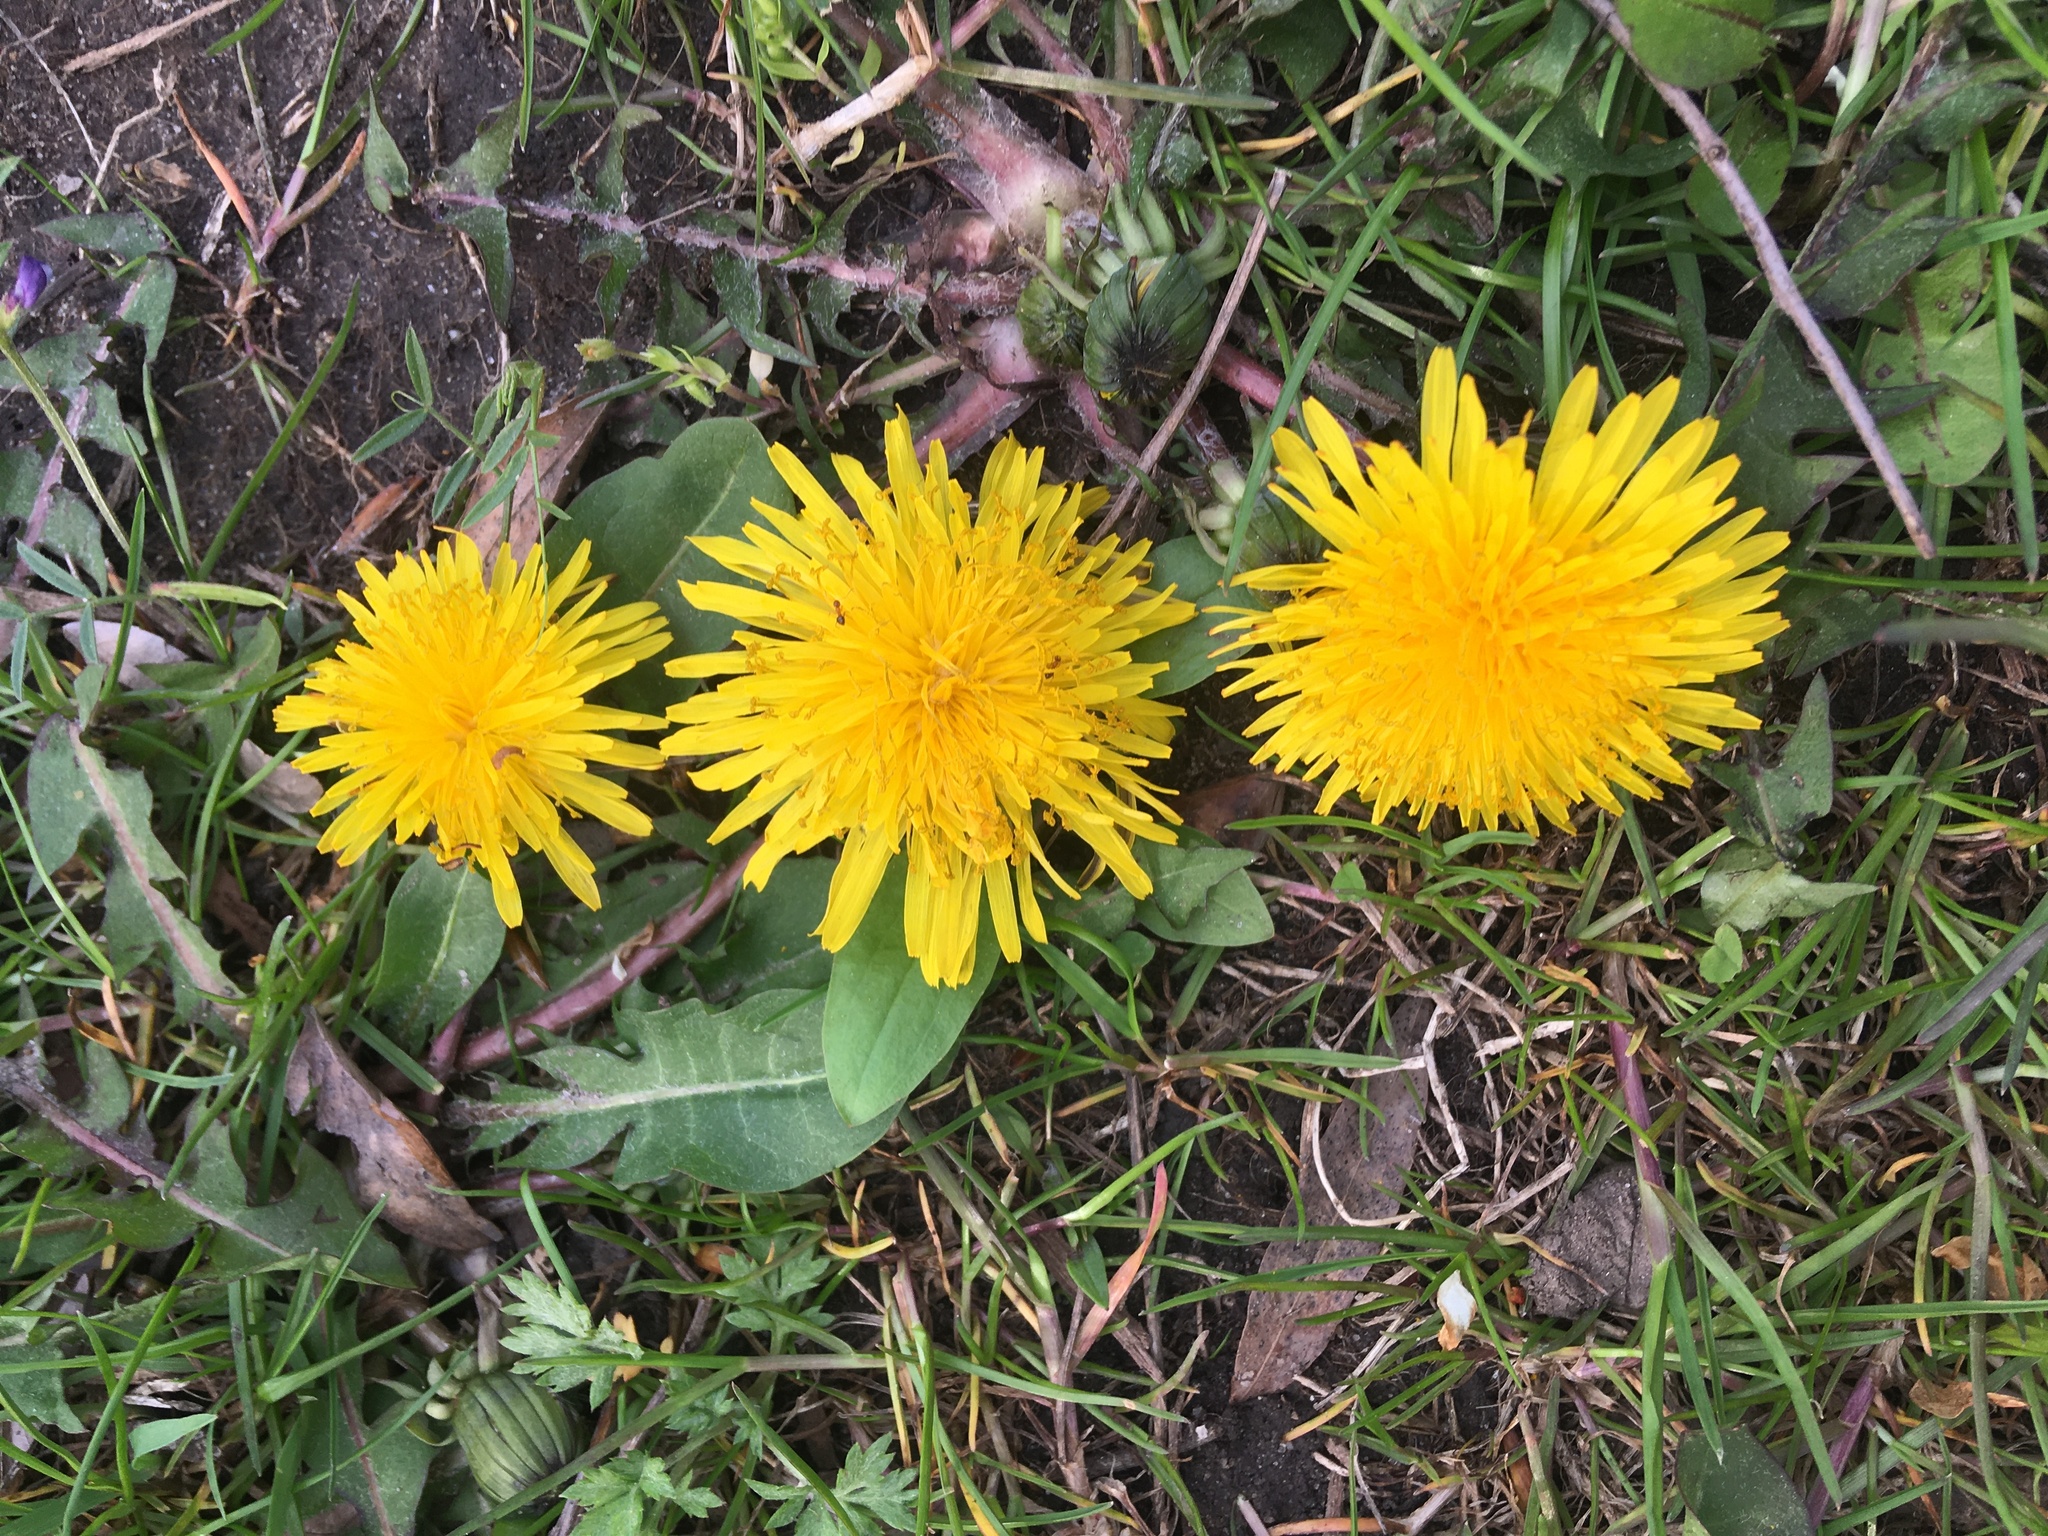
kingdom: Plantae
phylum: Tracheophyta
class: Magnoliopsida
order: Asterales
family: Asteraceae
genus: Taraxacum
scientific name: Taraxacum officinale
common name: Common dandelion
